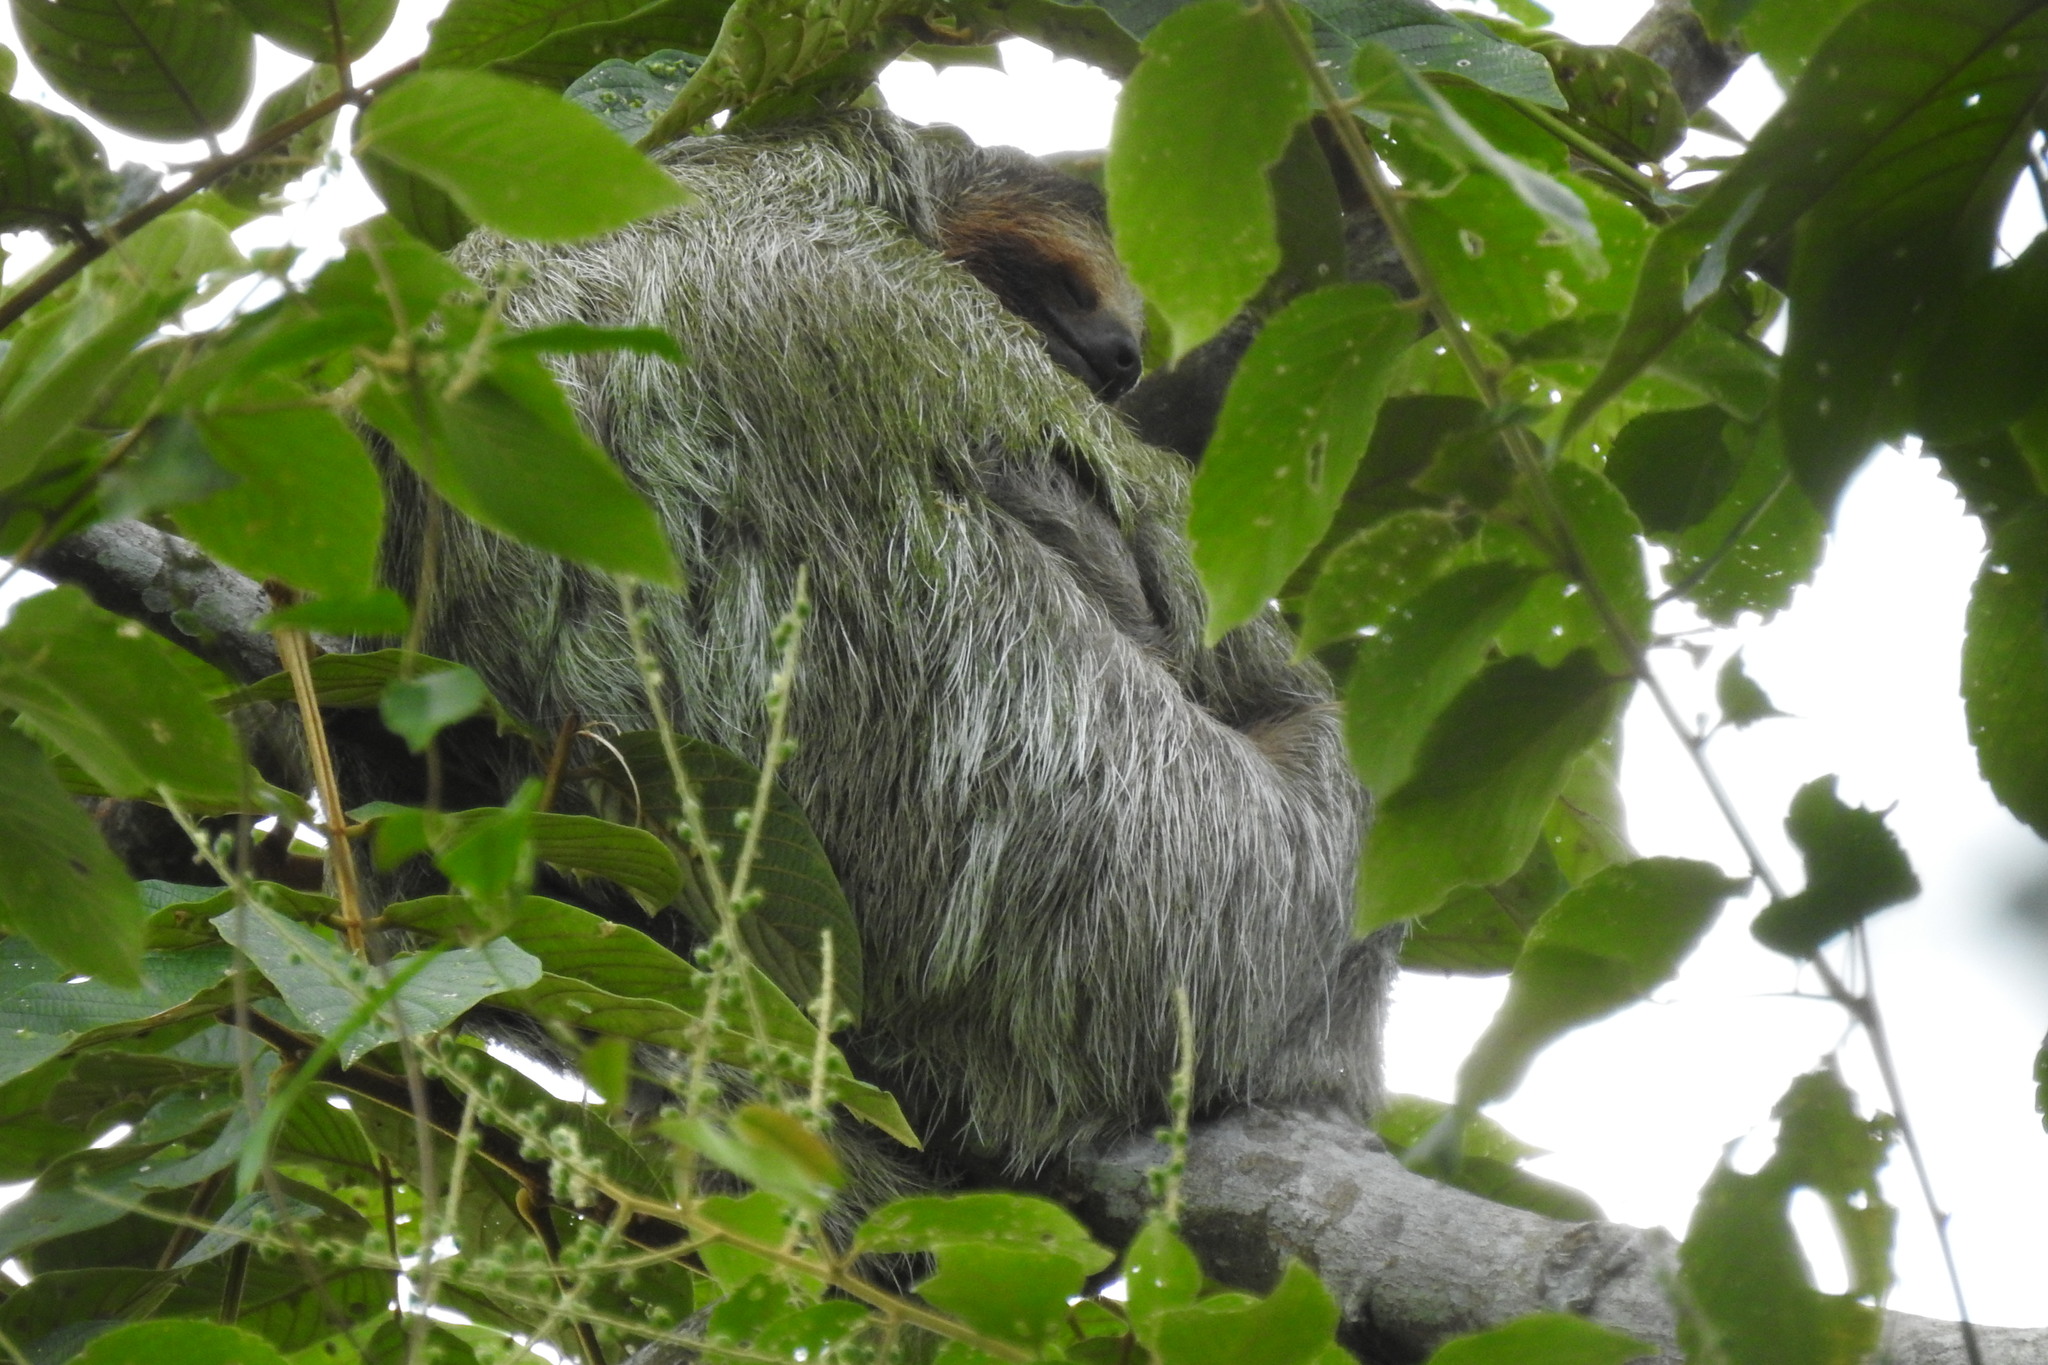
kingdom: Animalia
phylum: Chordata
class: Mammalia
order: Pilosa
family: Bradypodidae
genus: Bradypus
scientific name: Bradypus variegatus
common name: Brown-throated three-toed sloth
